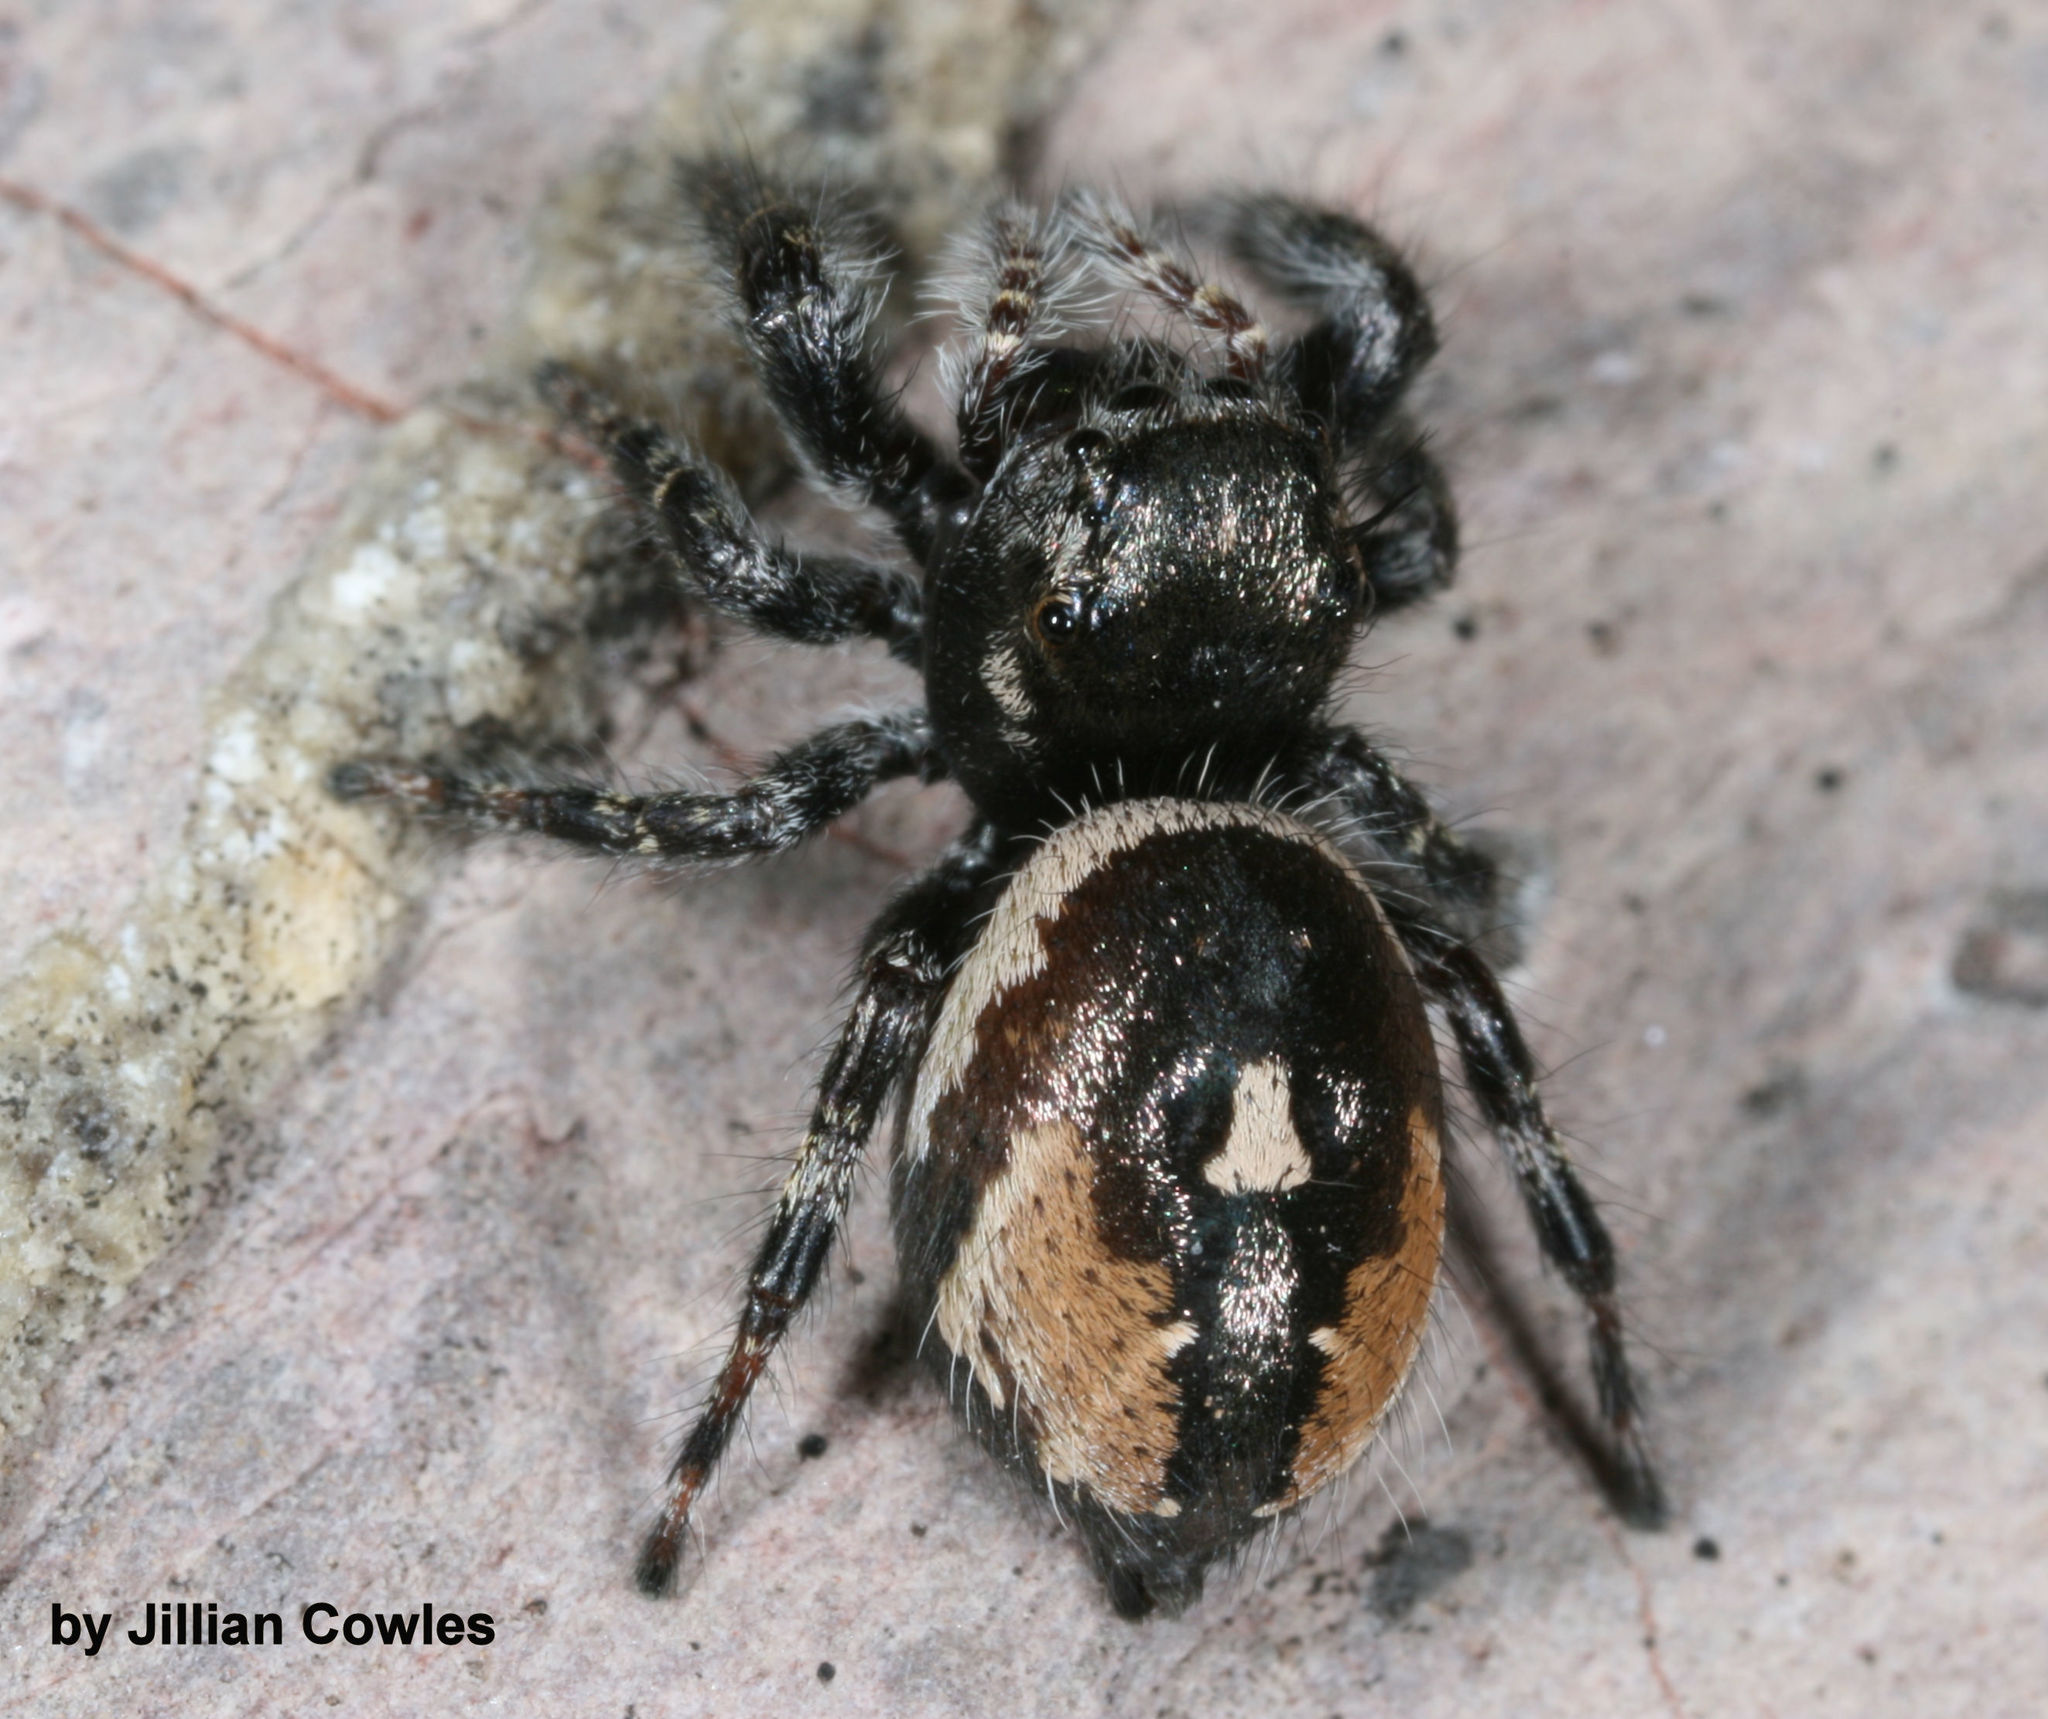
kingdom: Animalia
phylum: Arthropoda
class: Arachnida
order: Araneae
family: Salticidae
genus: Phidippus
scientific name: Phidippus californicus
